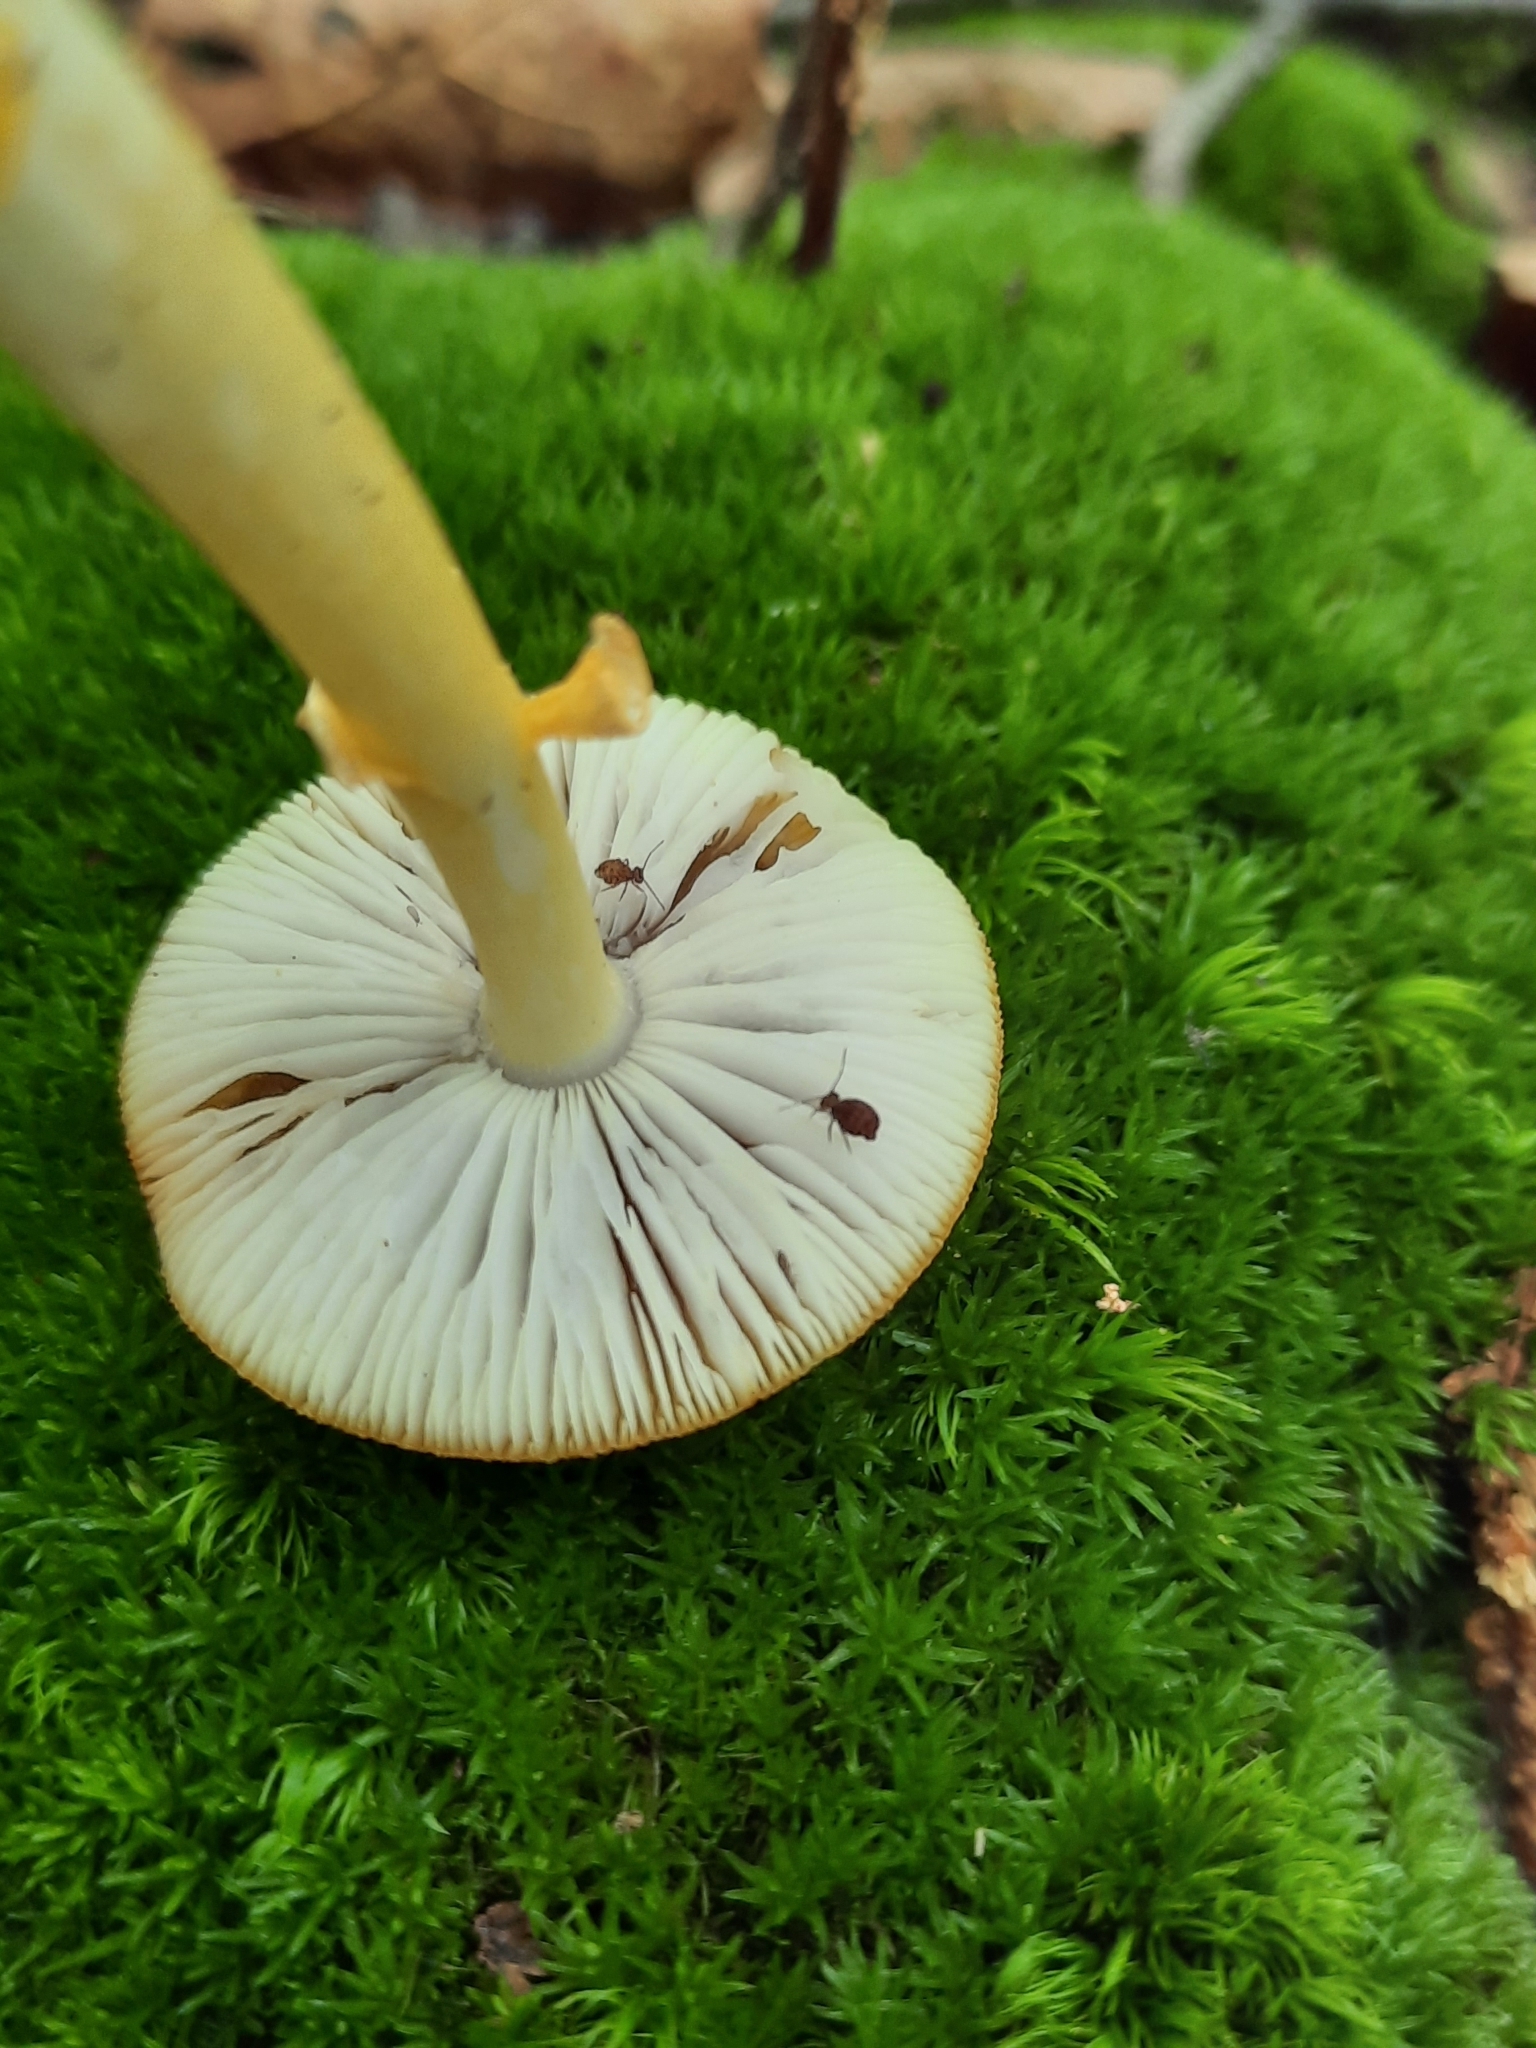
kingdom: Fungi
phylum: Basidiomycota
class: Agaricomycetes
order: Agaricales
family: Amanitaceae
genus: Amanita
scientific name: Amanita flavoconia
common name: Yellow patches
